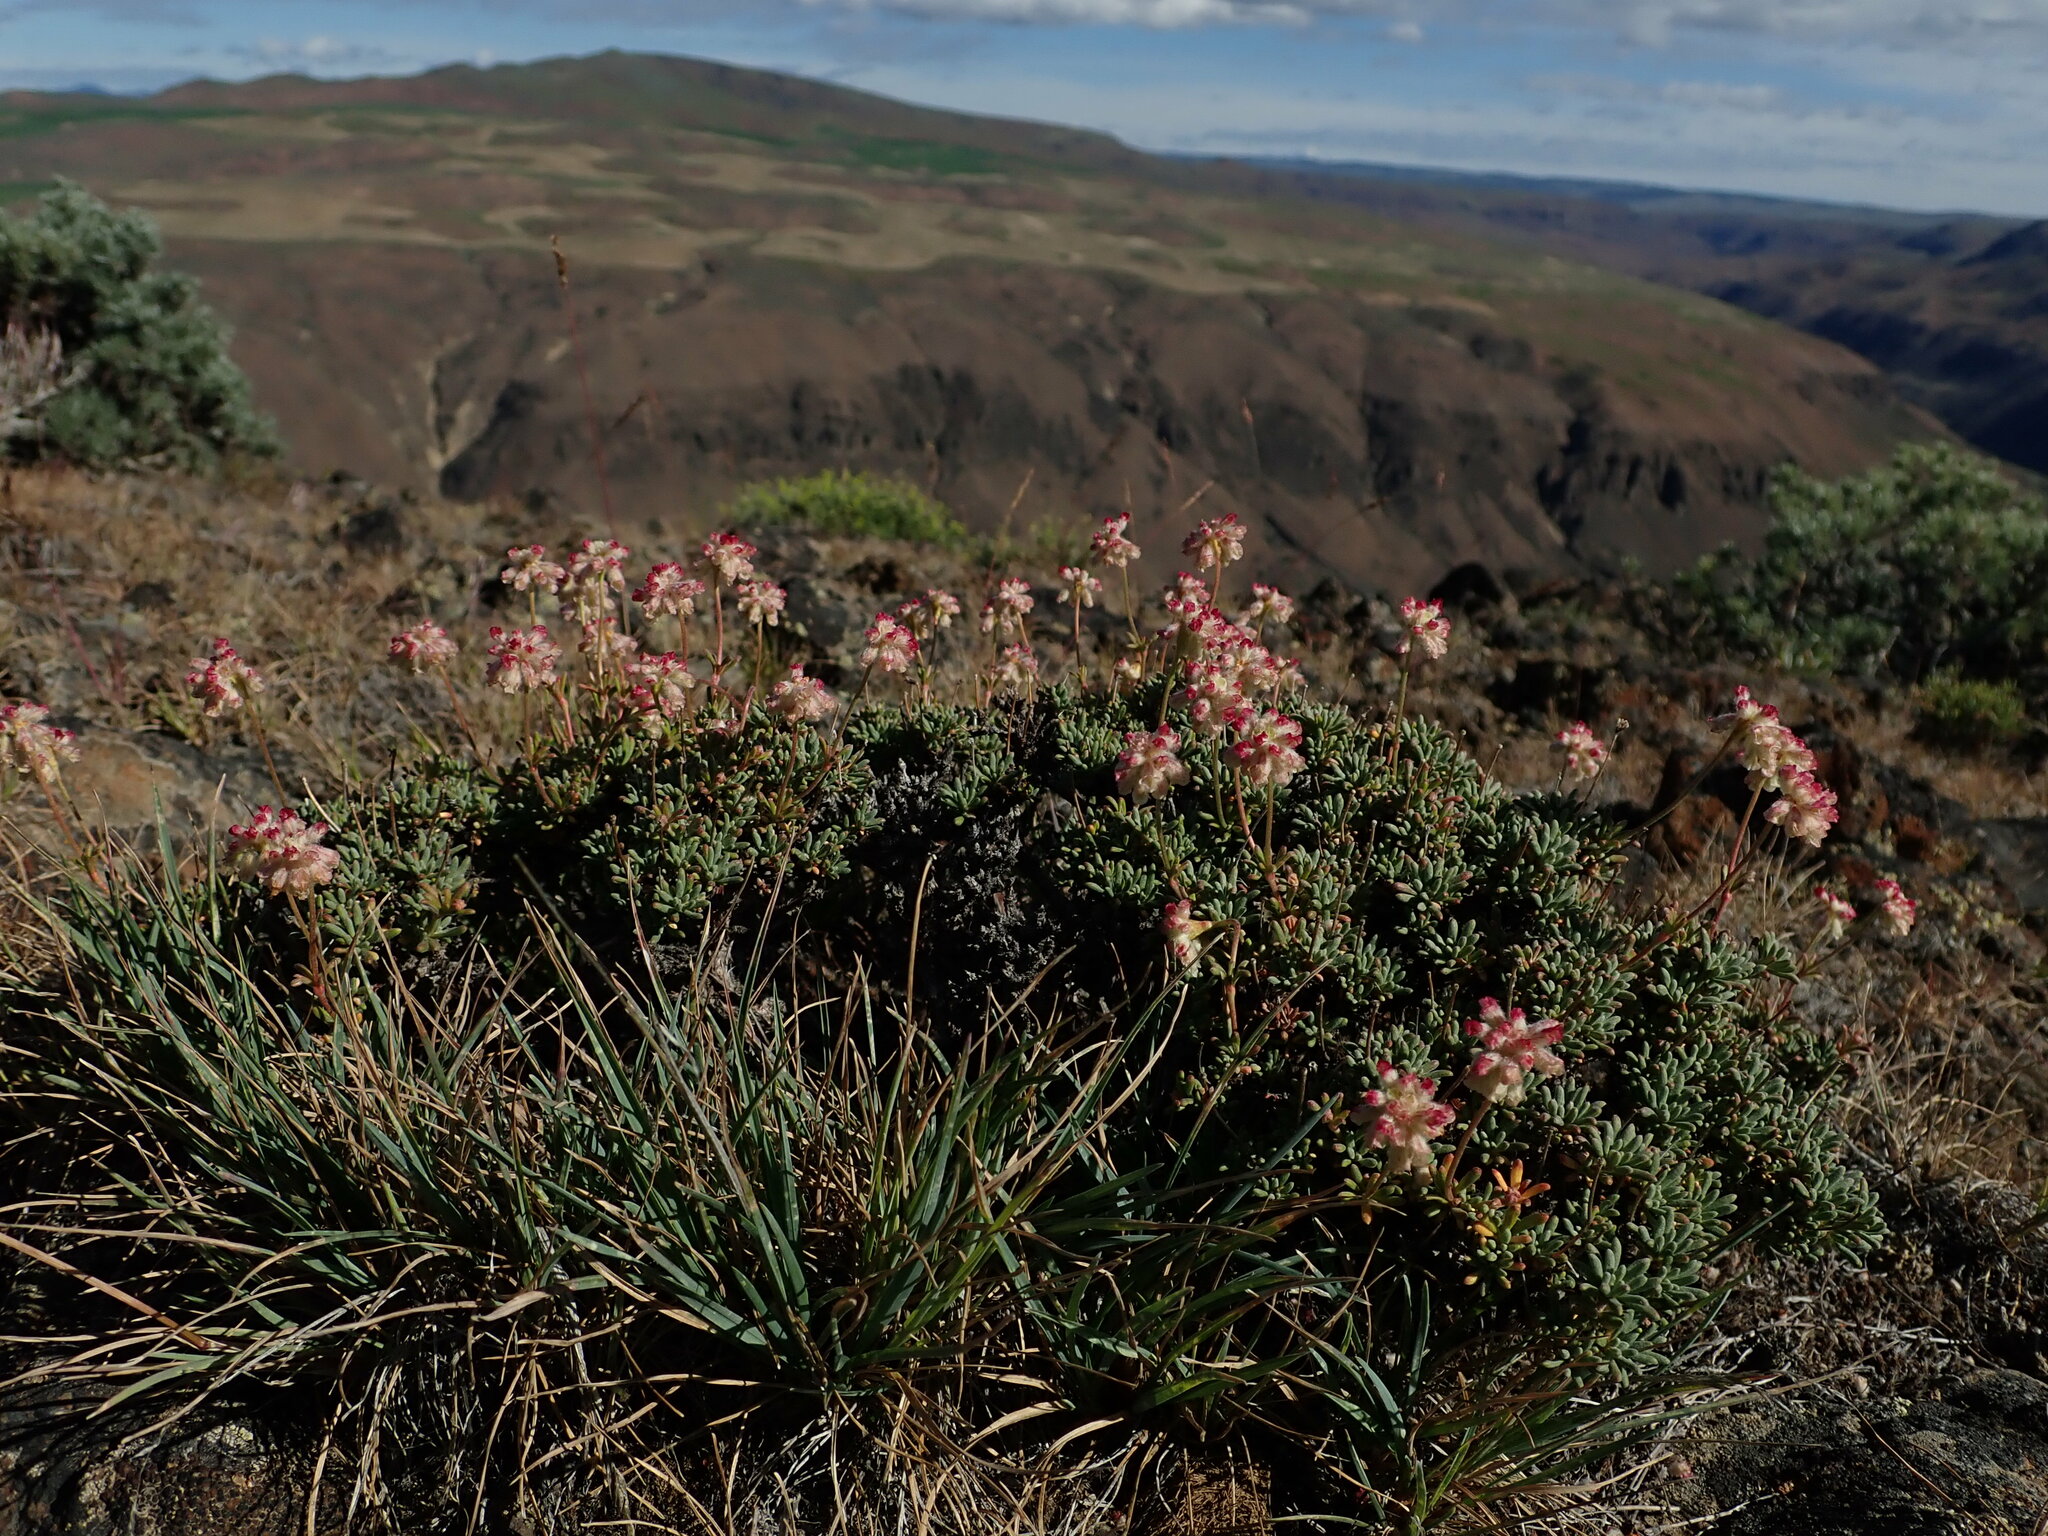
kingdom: Plantae
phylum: Tracheophyta
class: Magnoliopsida
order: Caryophyllales
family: Polygonaceae
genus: Eriogonum
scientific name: Eriogonum thymoides
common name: Thyme-leaf wild buckwheat
